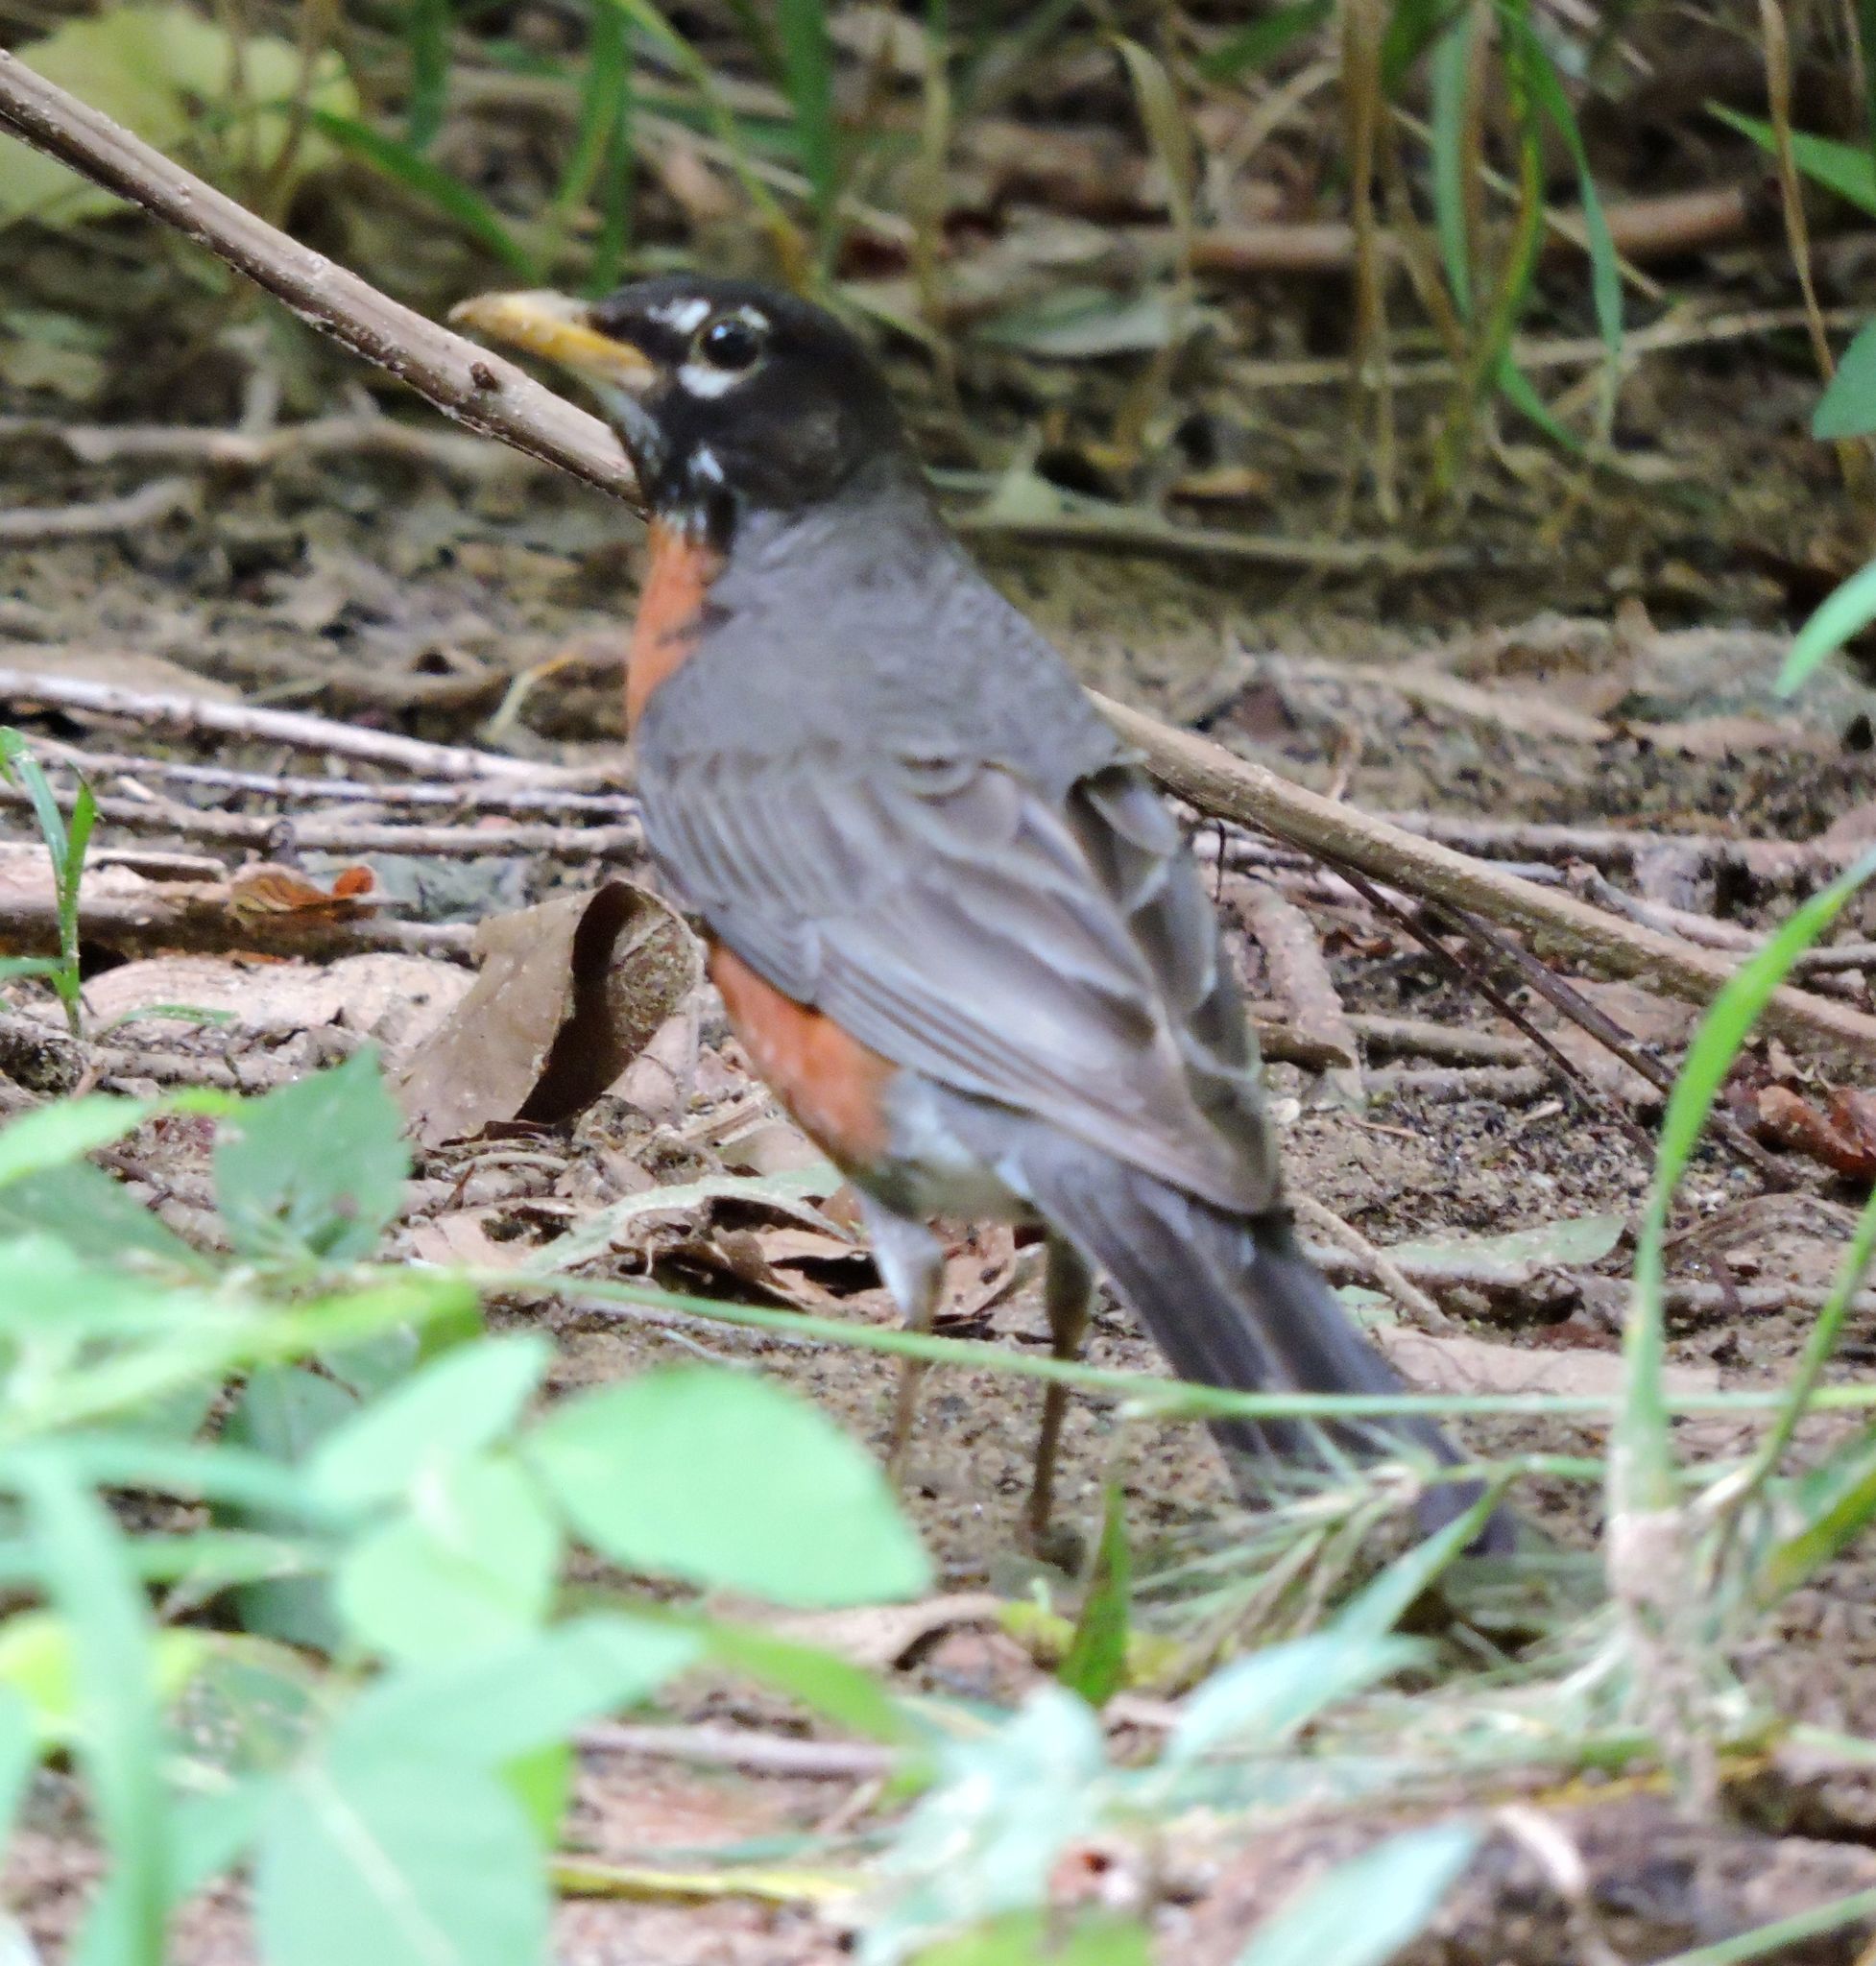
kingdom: Animalia
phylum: Chordata
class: Aves
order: Passeriformes
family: Turdidae
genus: Turdus
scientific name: Turdus migratorius
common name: American robin
